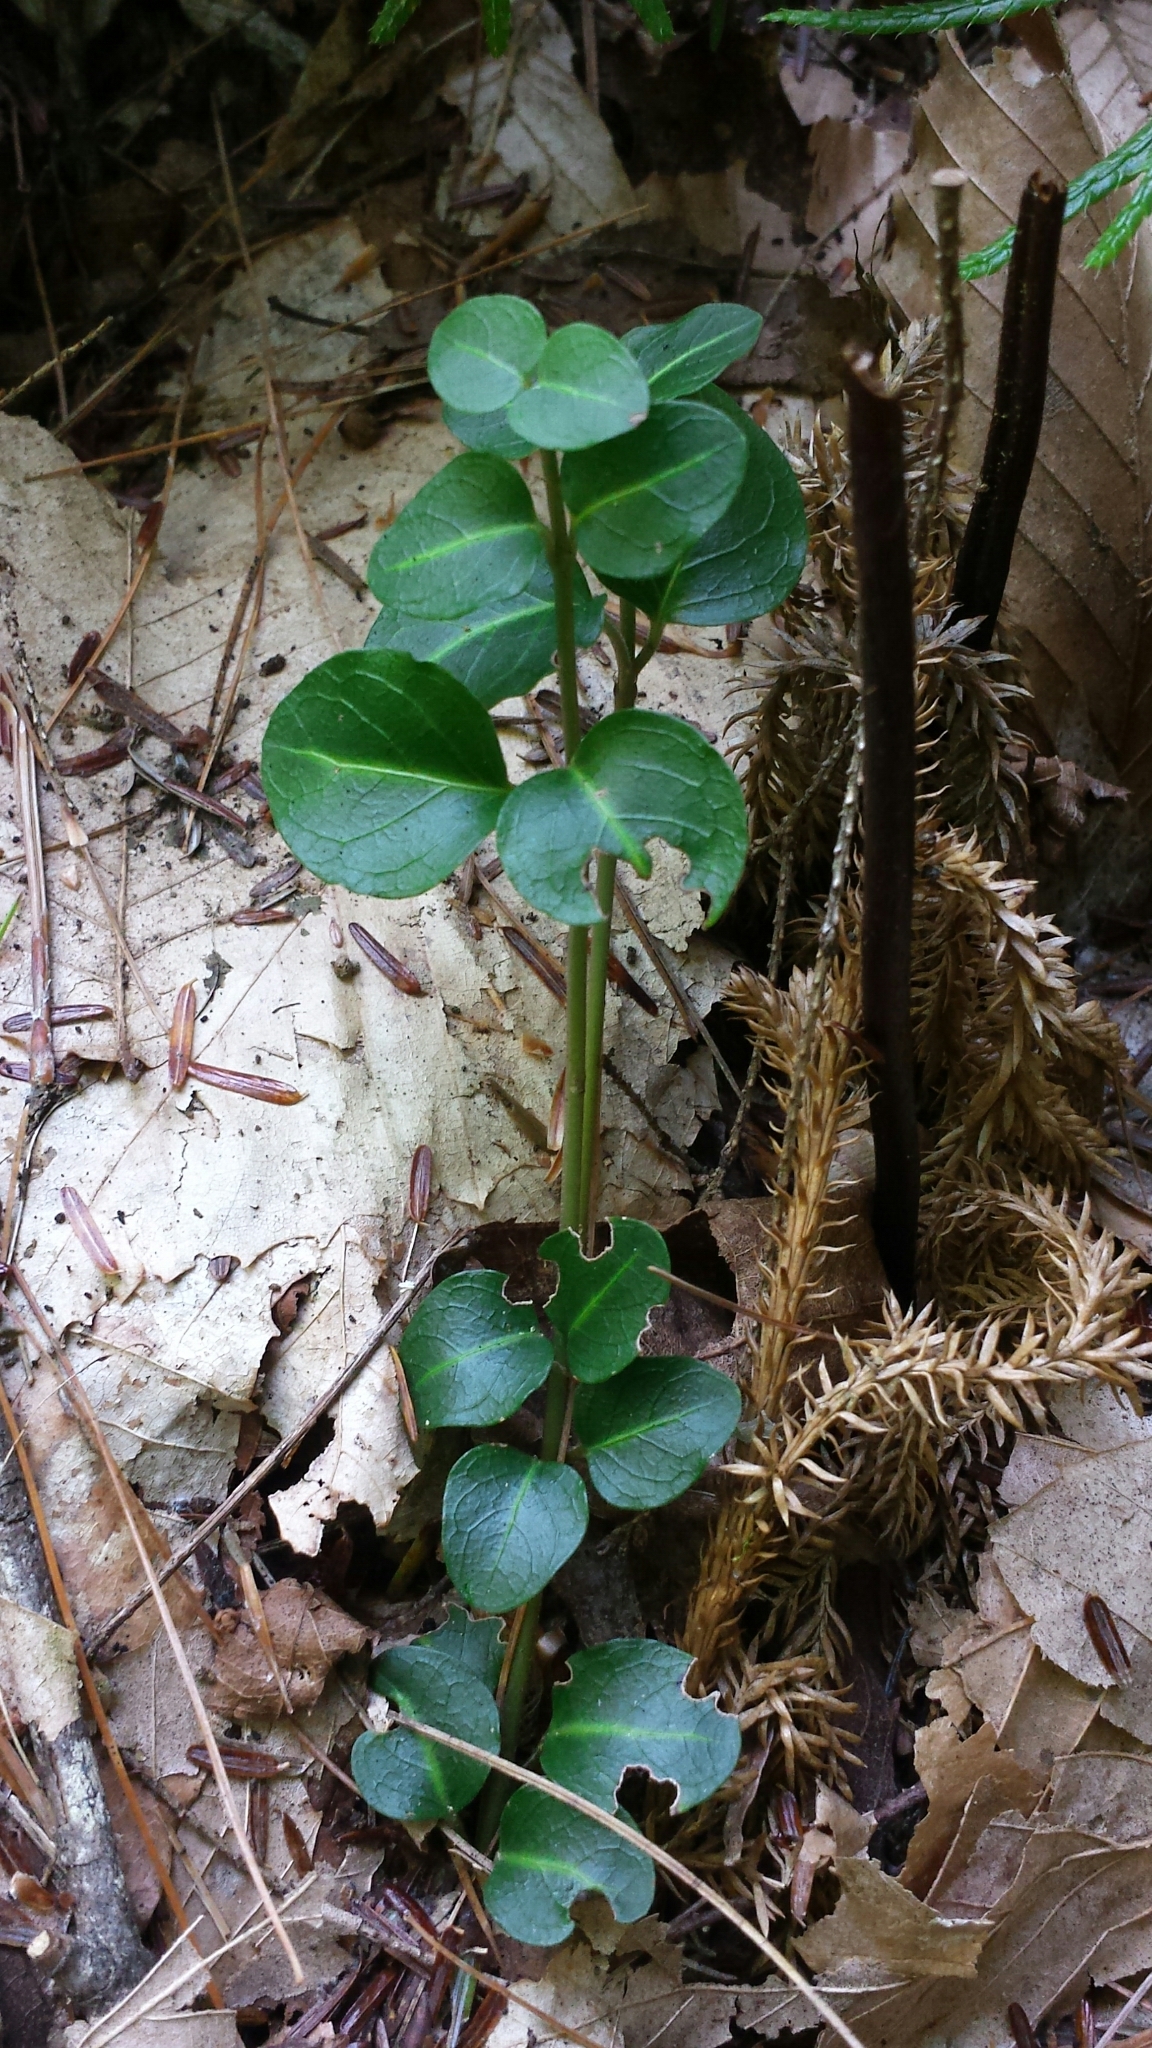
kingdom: Plantae
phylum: Tracheophyta
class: Magnoliopsida
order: Gentianales
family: Rubiaceae
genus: Mitchella
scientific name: Mitchella repens
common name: Partridge-berry
